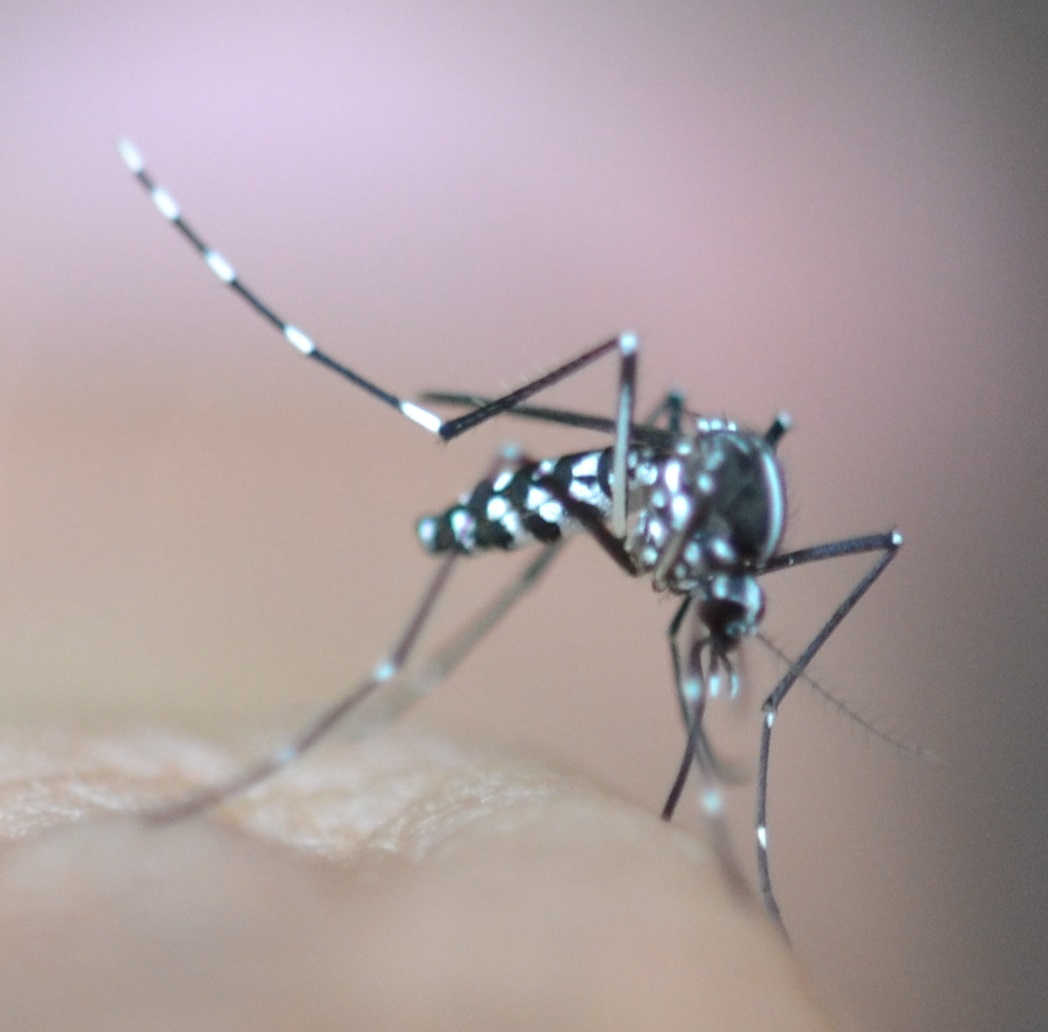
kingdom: Animalia
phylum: Arthropoda
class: Insecta
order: Diptera
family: Culicidae
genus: Aedes
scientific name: Aedes albopictus
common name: Tiger mosquito
